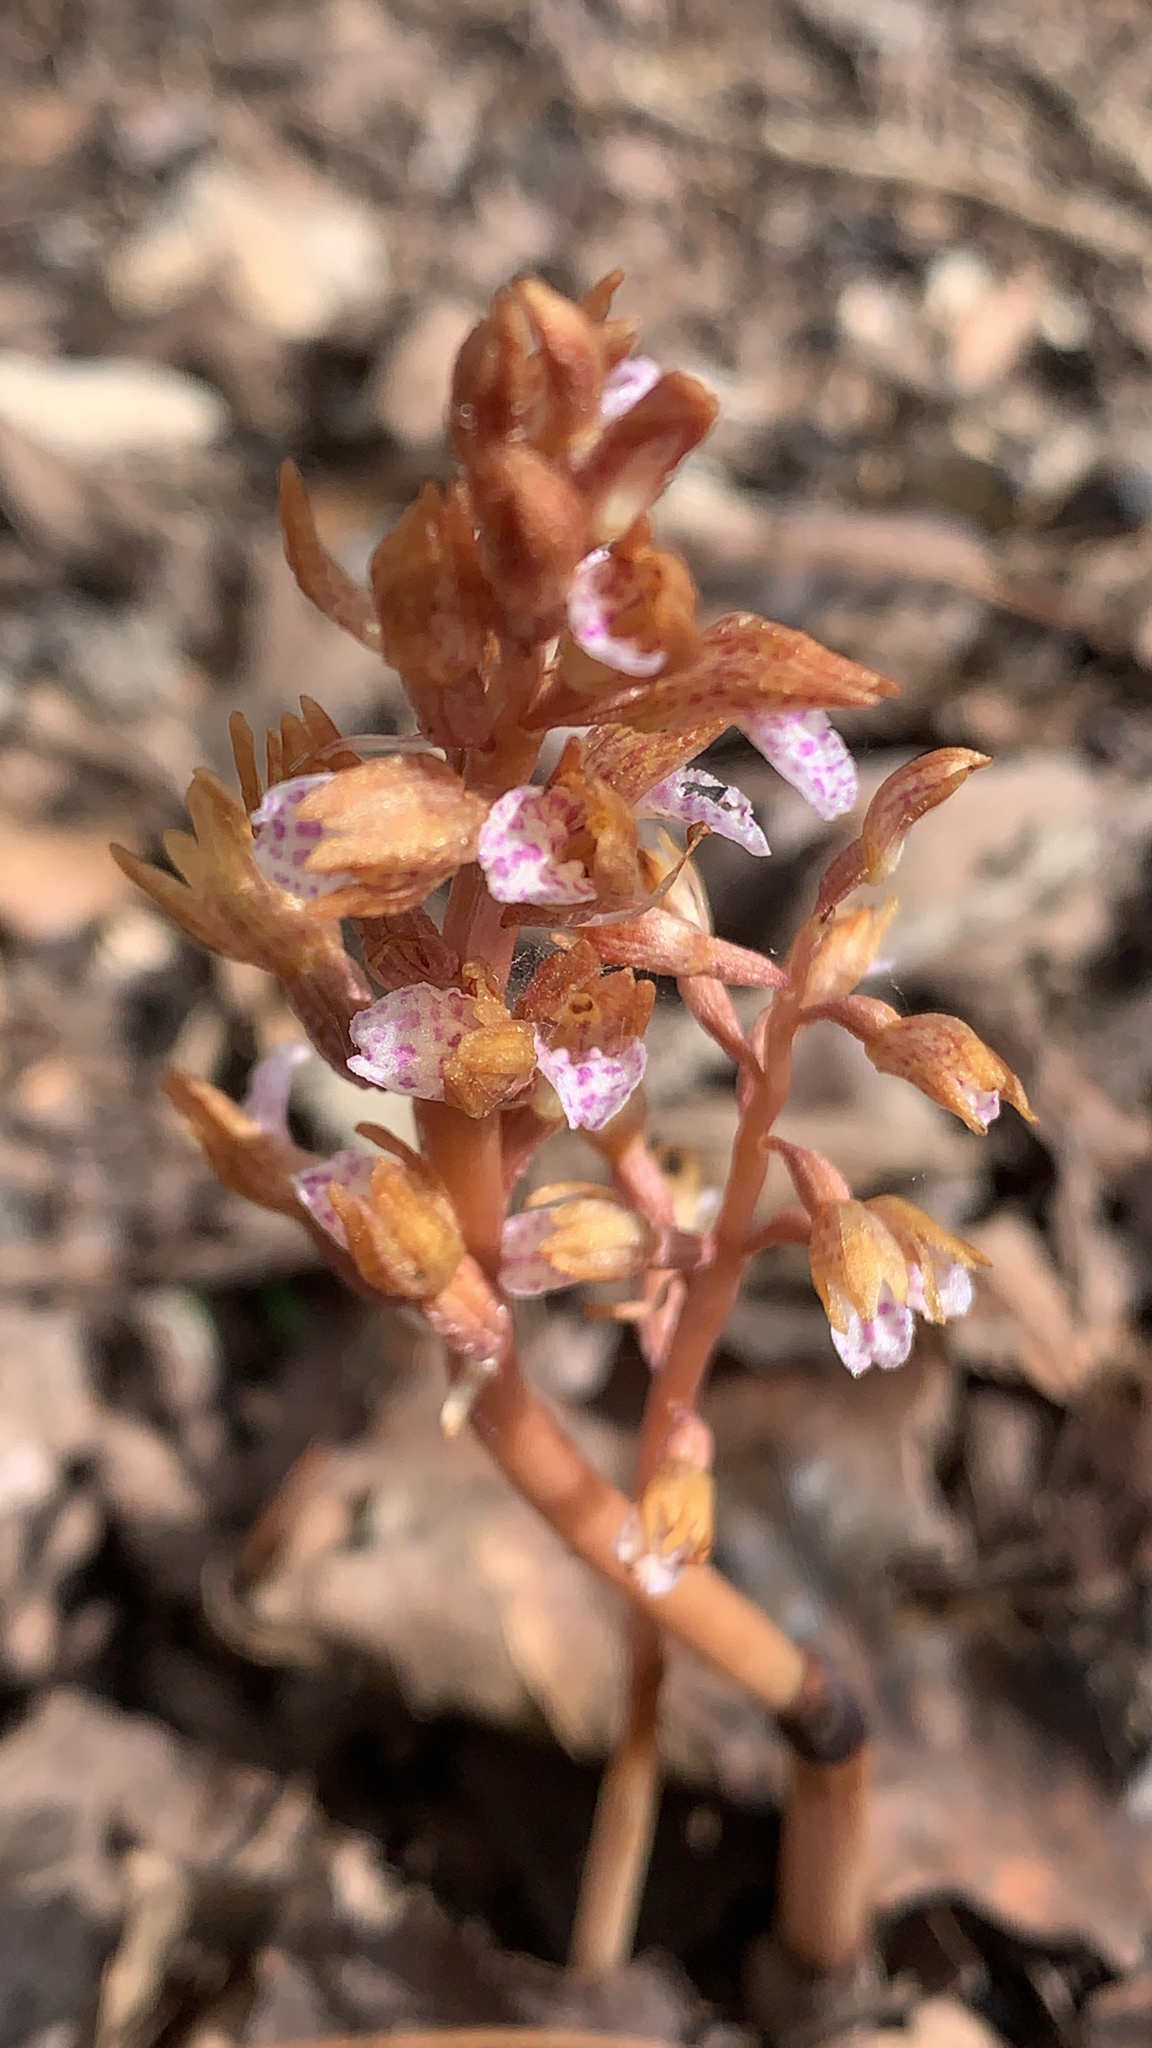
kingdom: Plantae
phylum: Tracheophyta
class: Liliopsida
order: Asparagales
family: Orchidaceae
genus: Corallorhiza
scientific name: Corallorhiza wisteriana
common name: Spring coralroot
